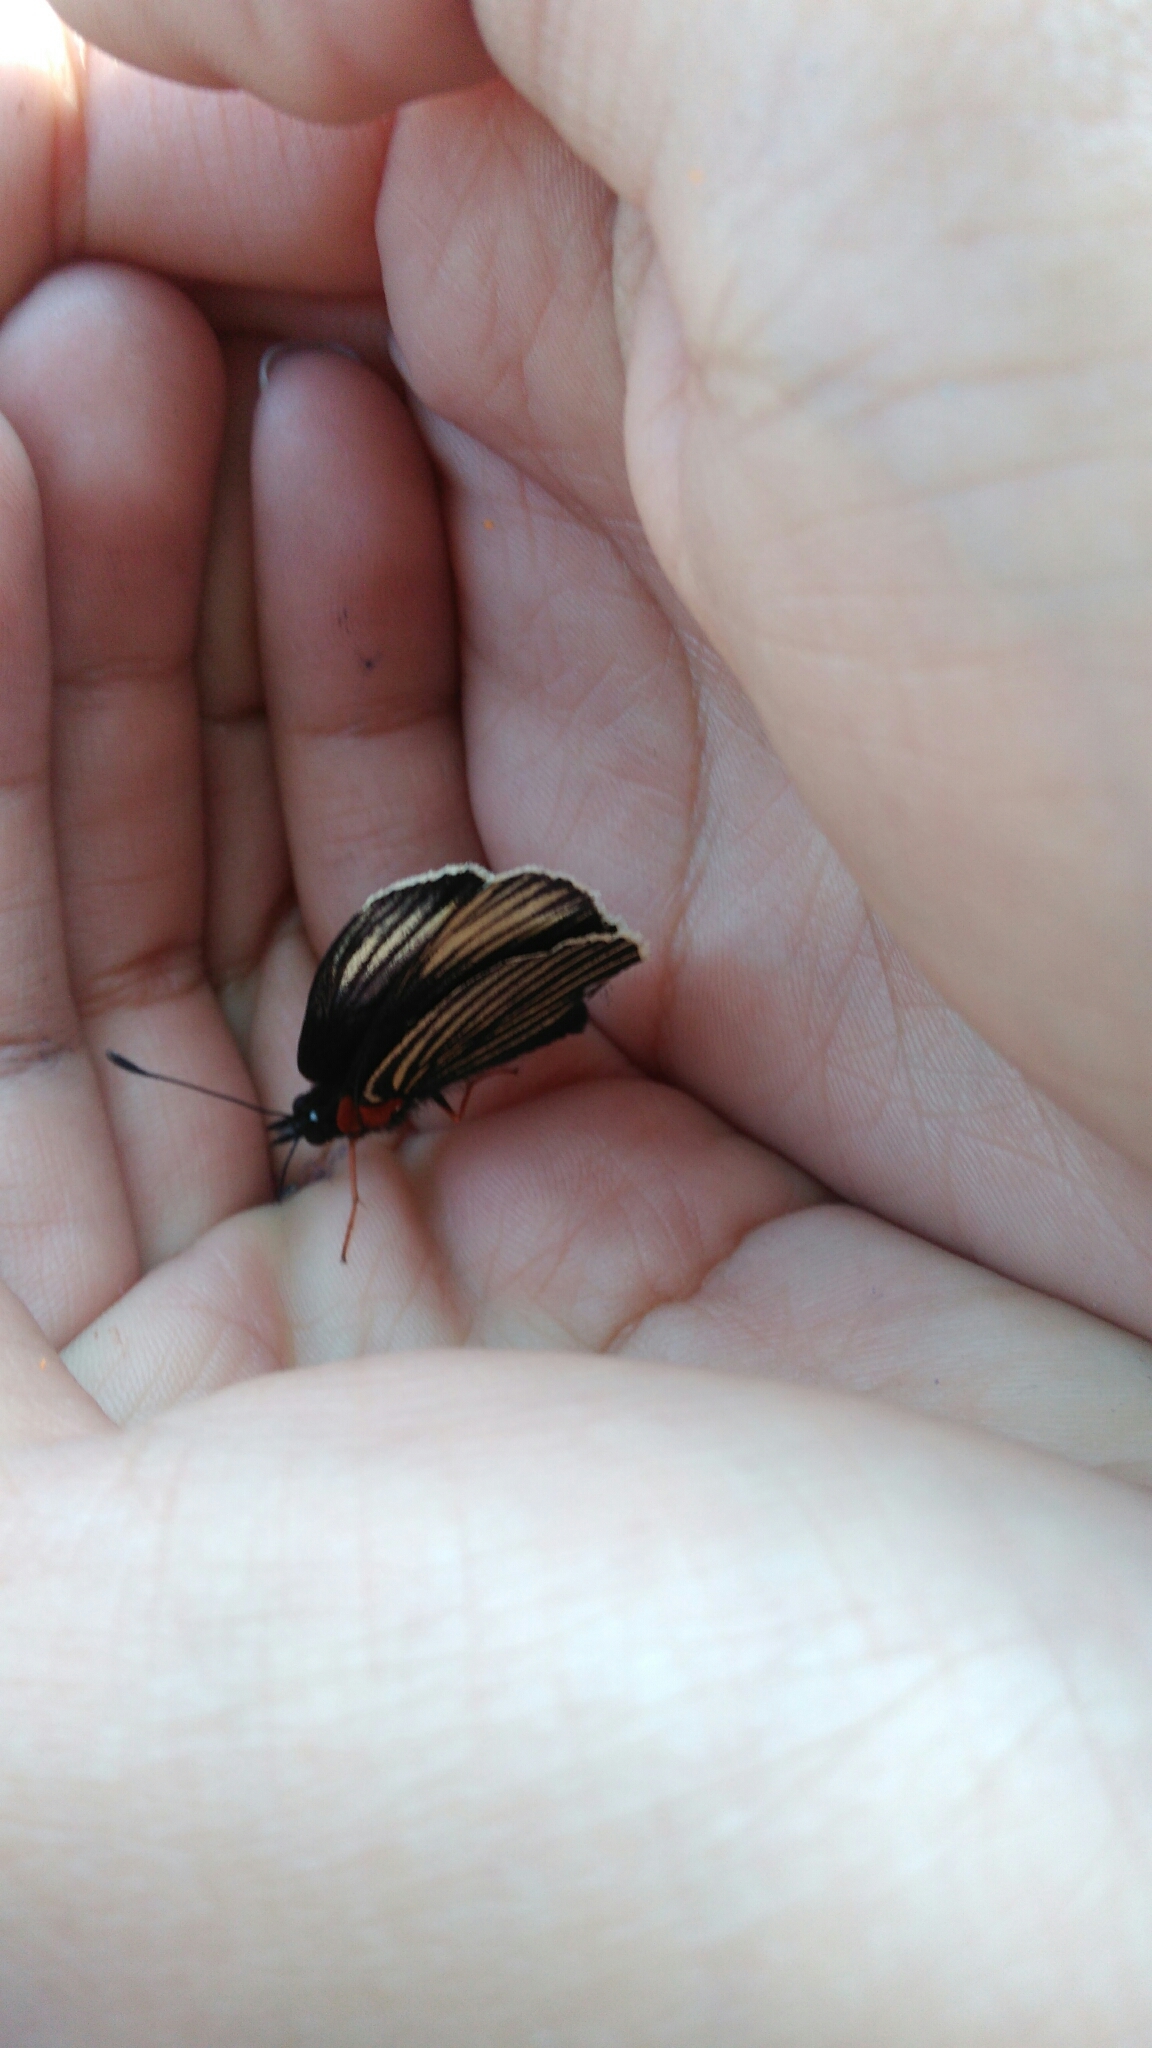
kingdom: Animalia
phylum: Arthropoda
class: Insecta
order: Lepidoptera
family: Nymphalidae
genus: Chlosyne
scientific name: Chlosyne ehrenbergii
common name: White-rayed patch
